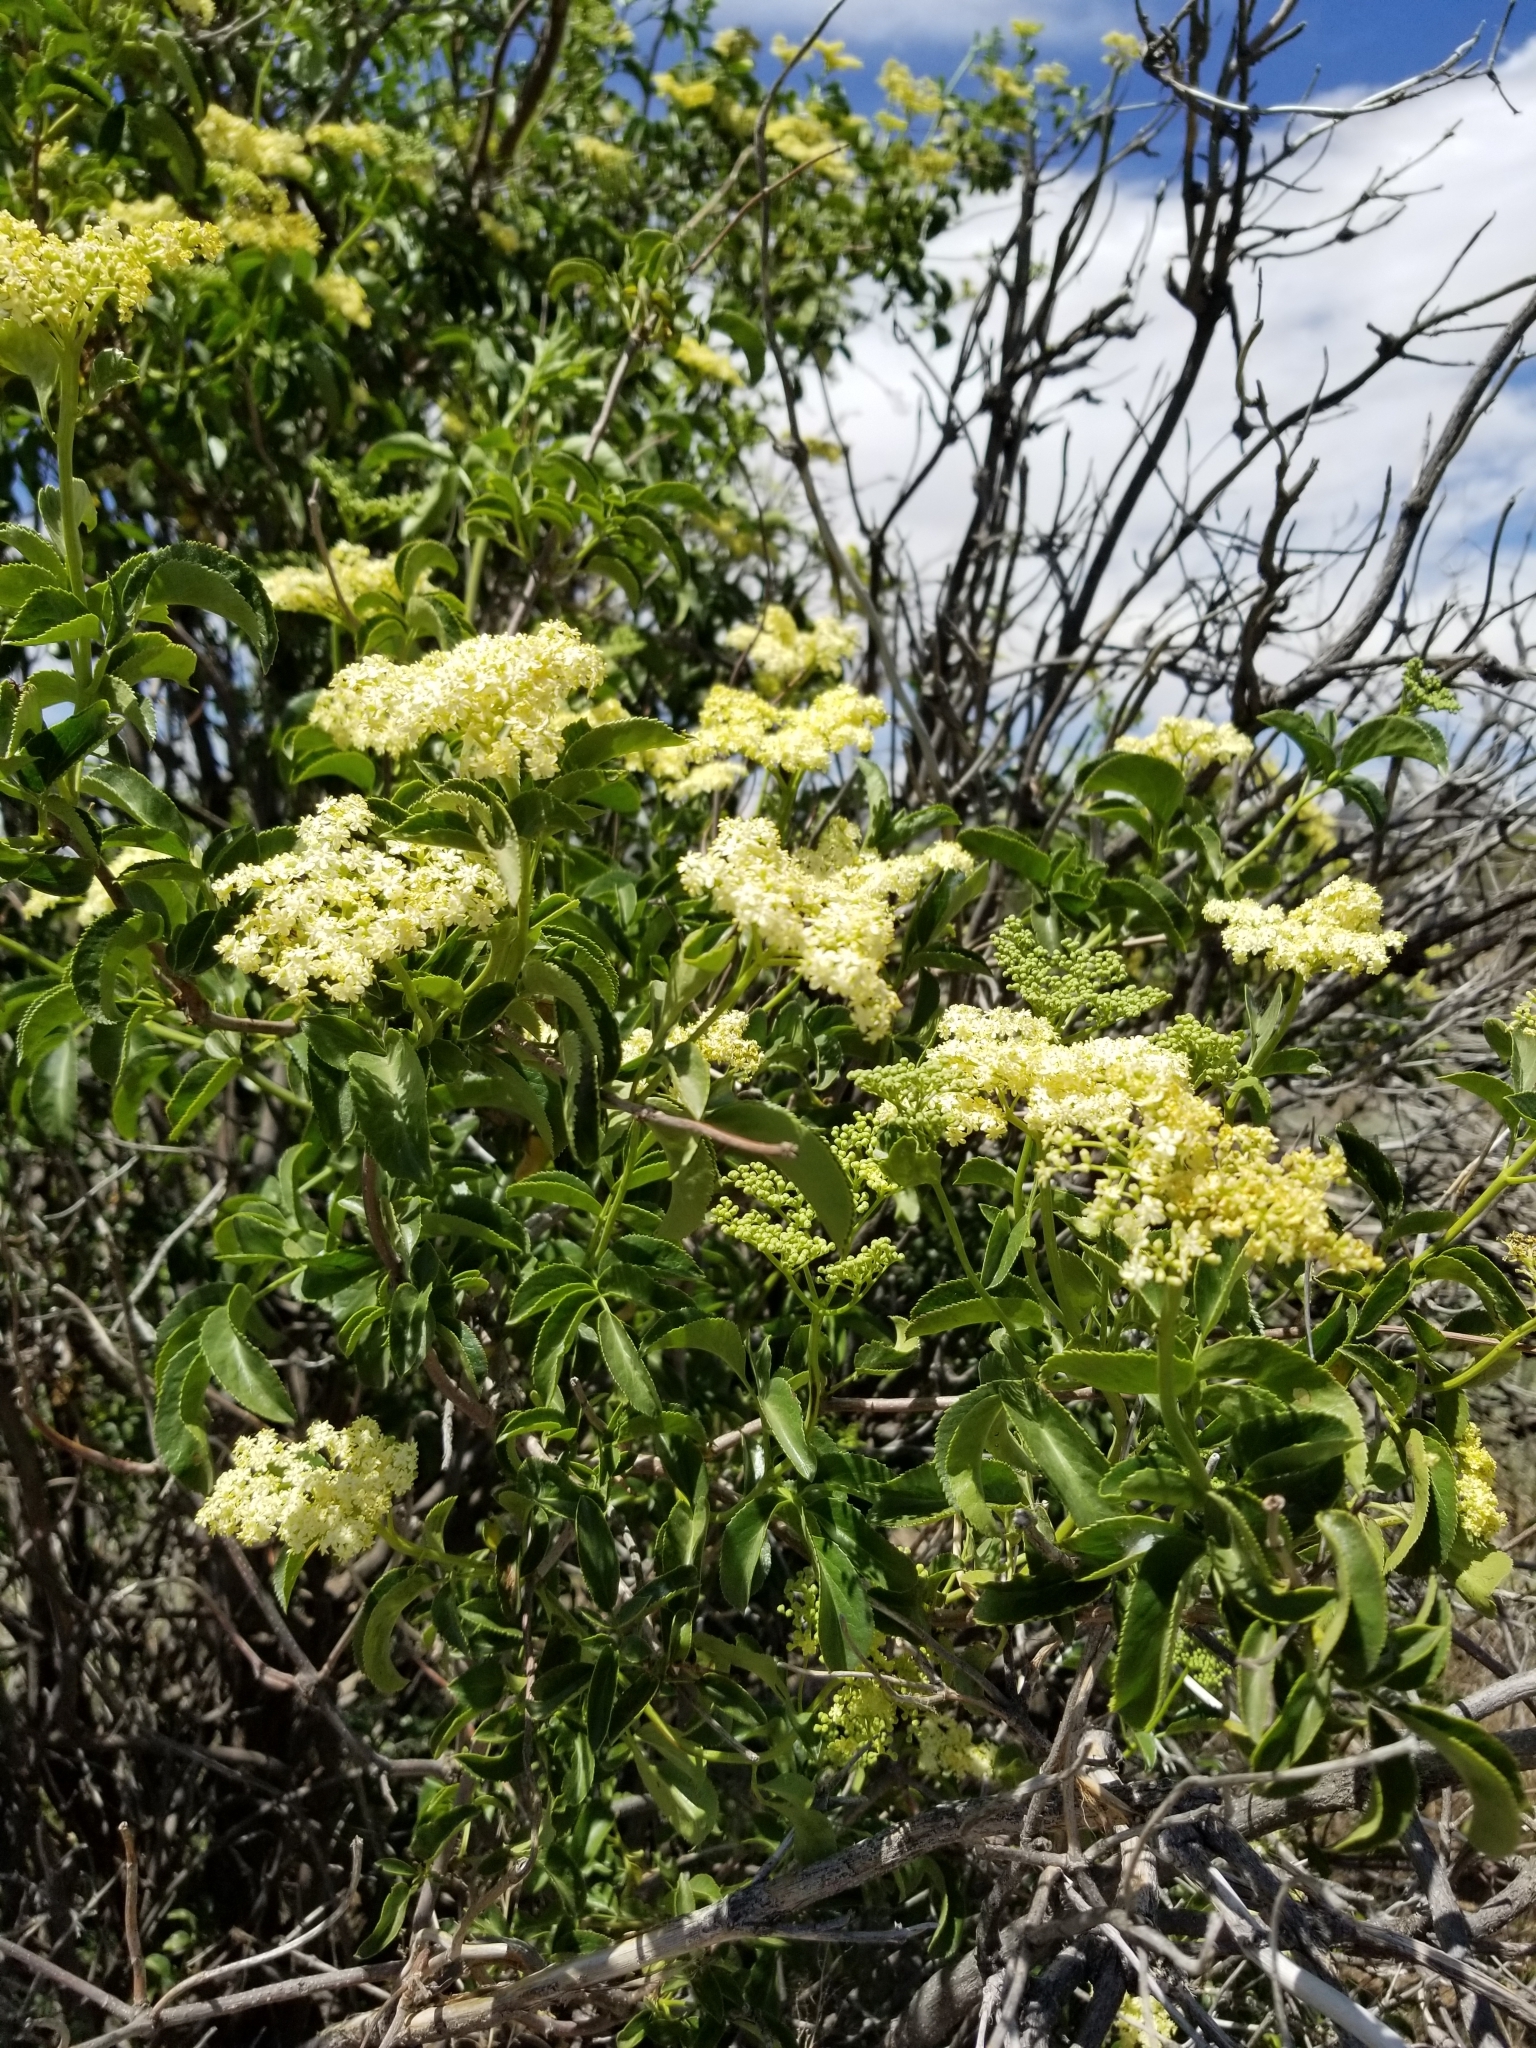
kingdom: Plantae
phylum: Tracheophyta
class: Magnoliopsida
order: Dipsacales
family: Viburnaceae
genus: Sambucus
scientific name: Sambucus cerulea
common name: Blue elder
